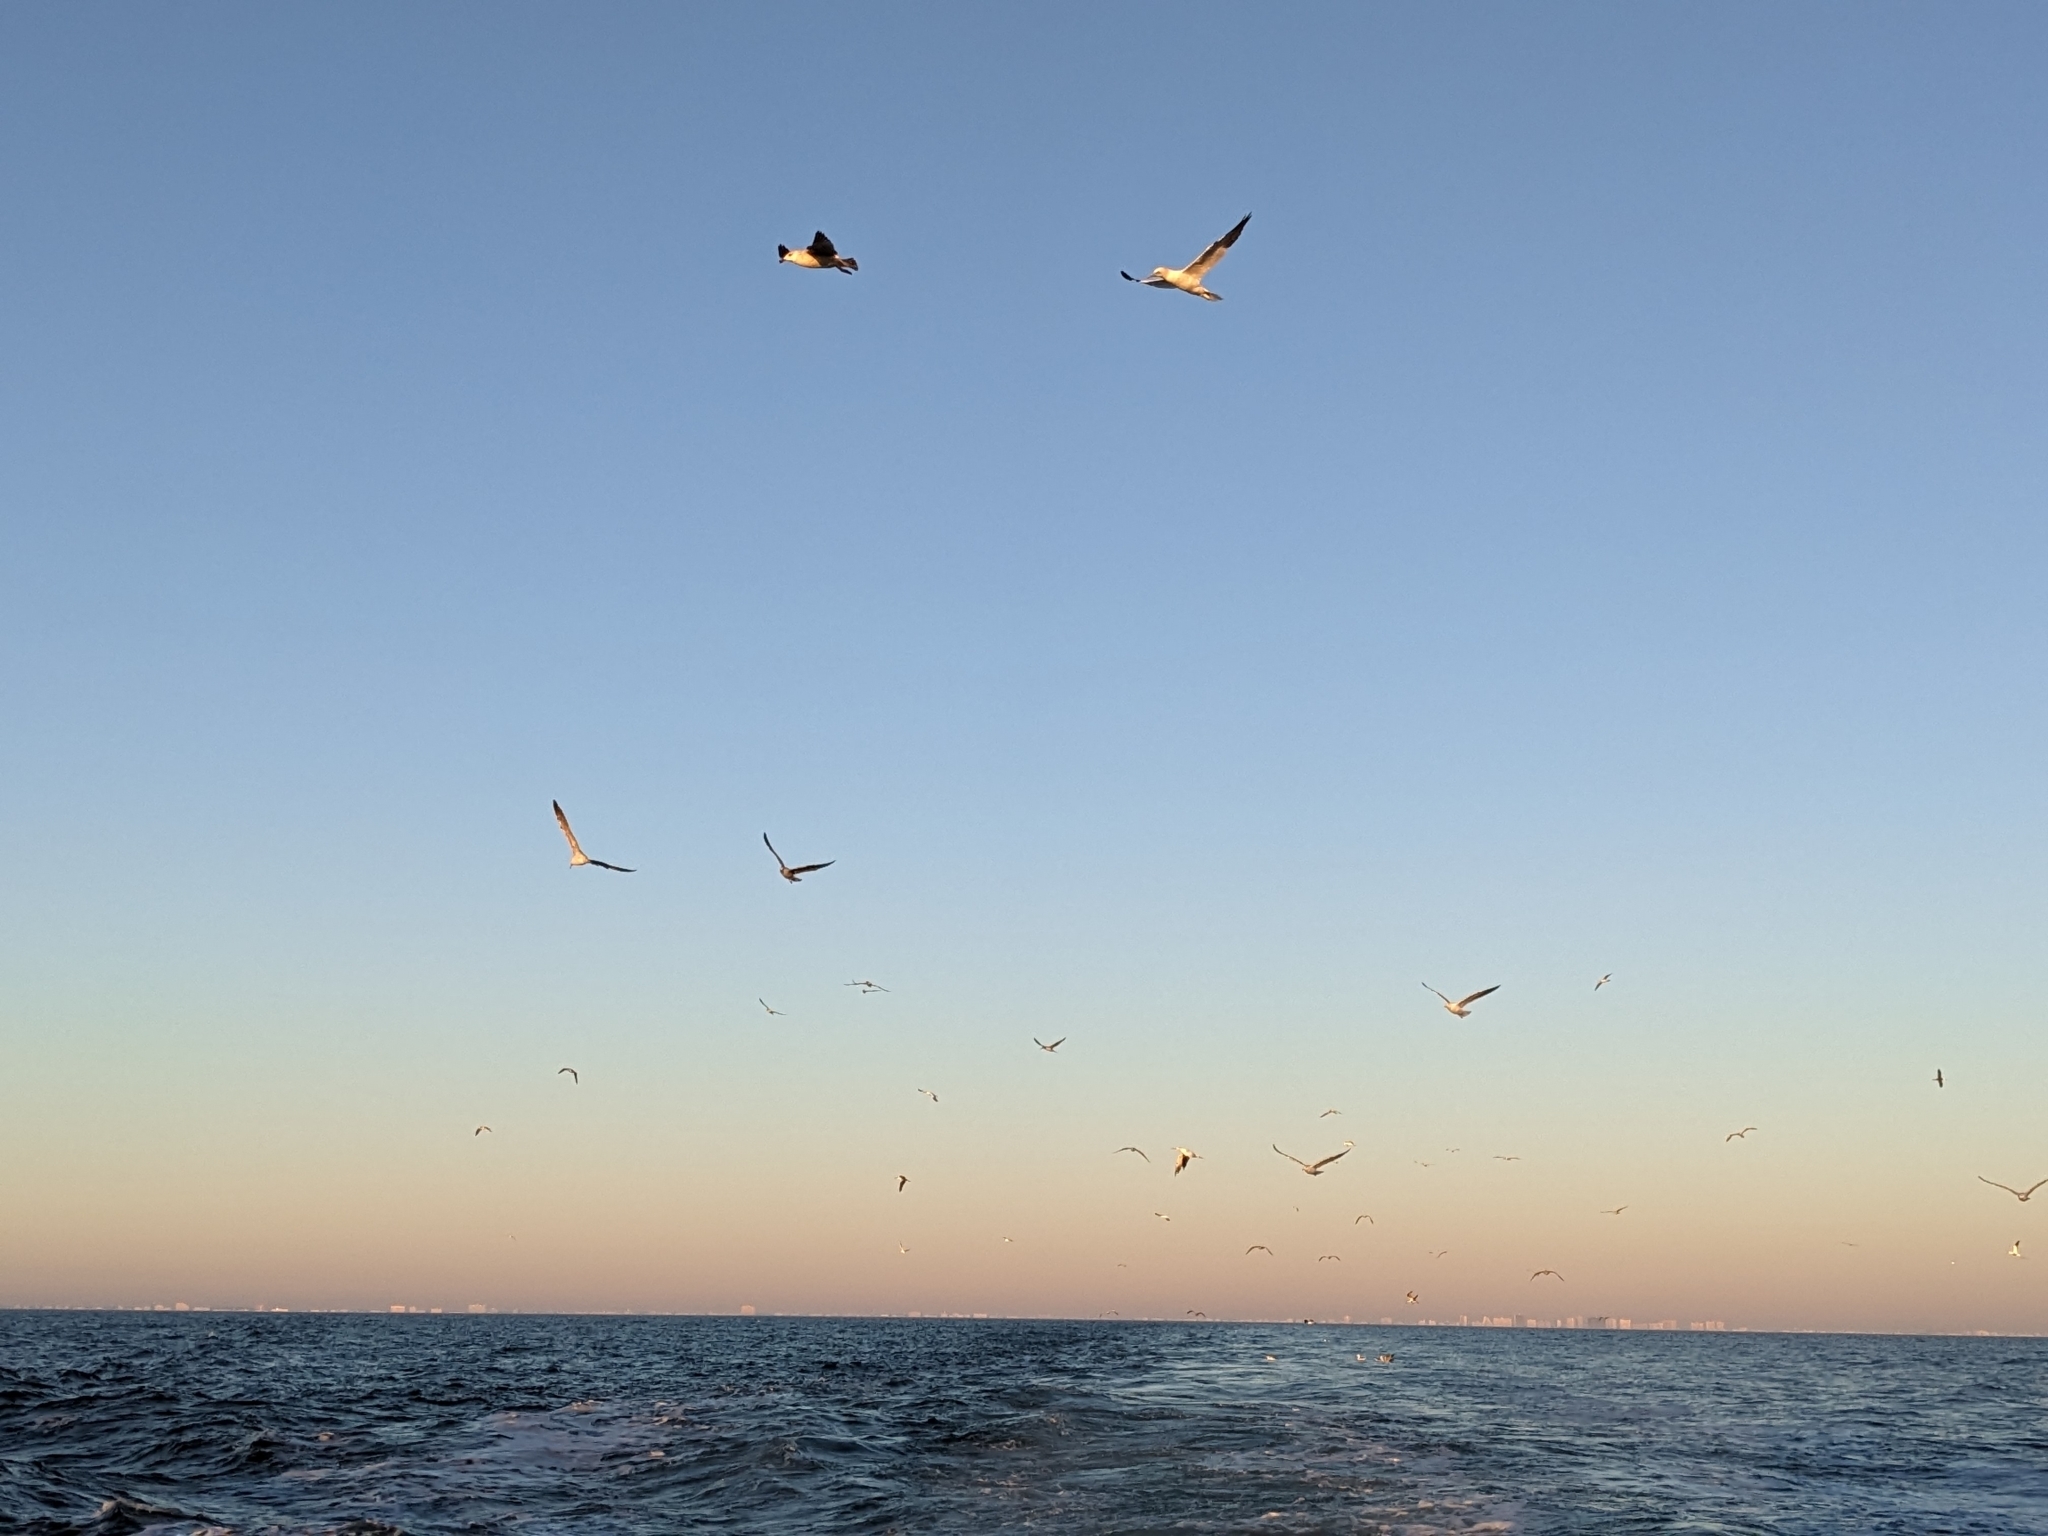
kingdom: Animalia
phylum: Chordata
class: Aves
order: Suliformes
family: Sulidae
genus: Morus
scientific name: Morus bassanus
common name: Northern gannet
